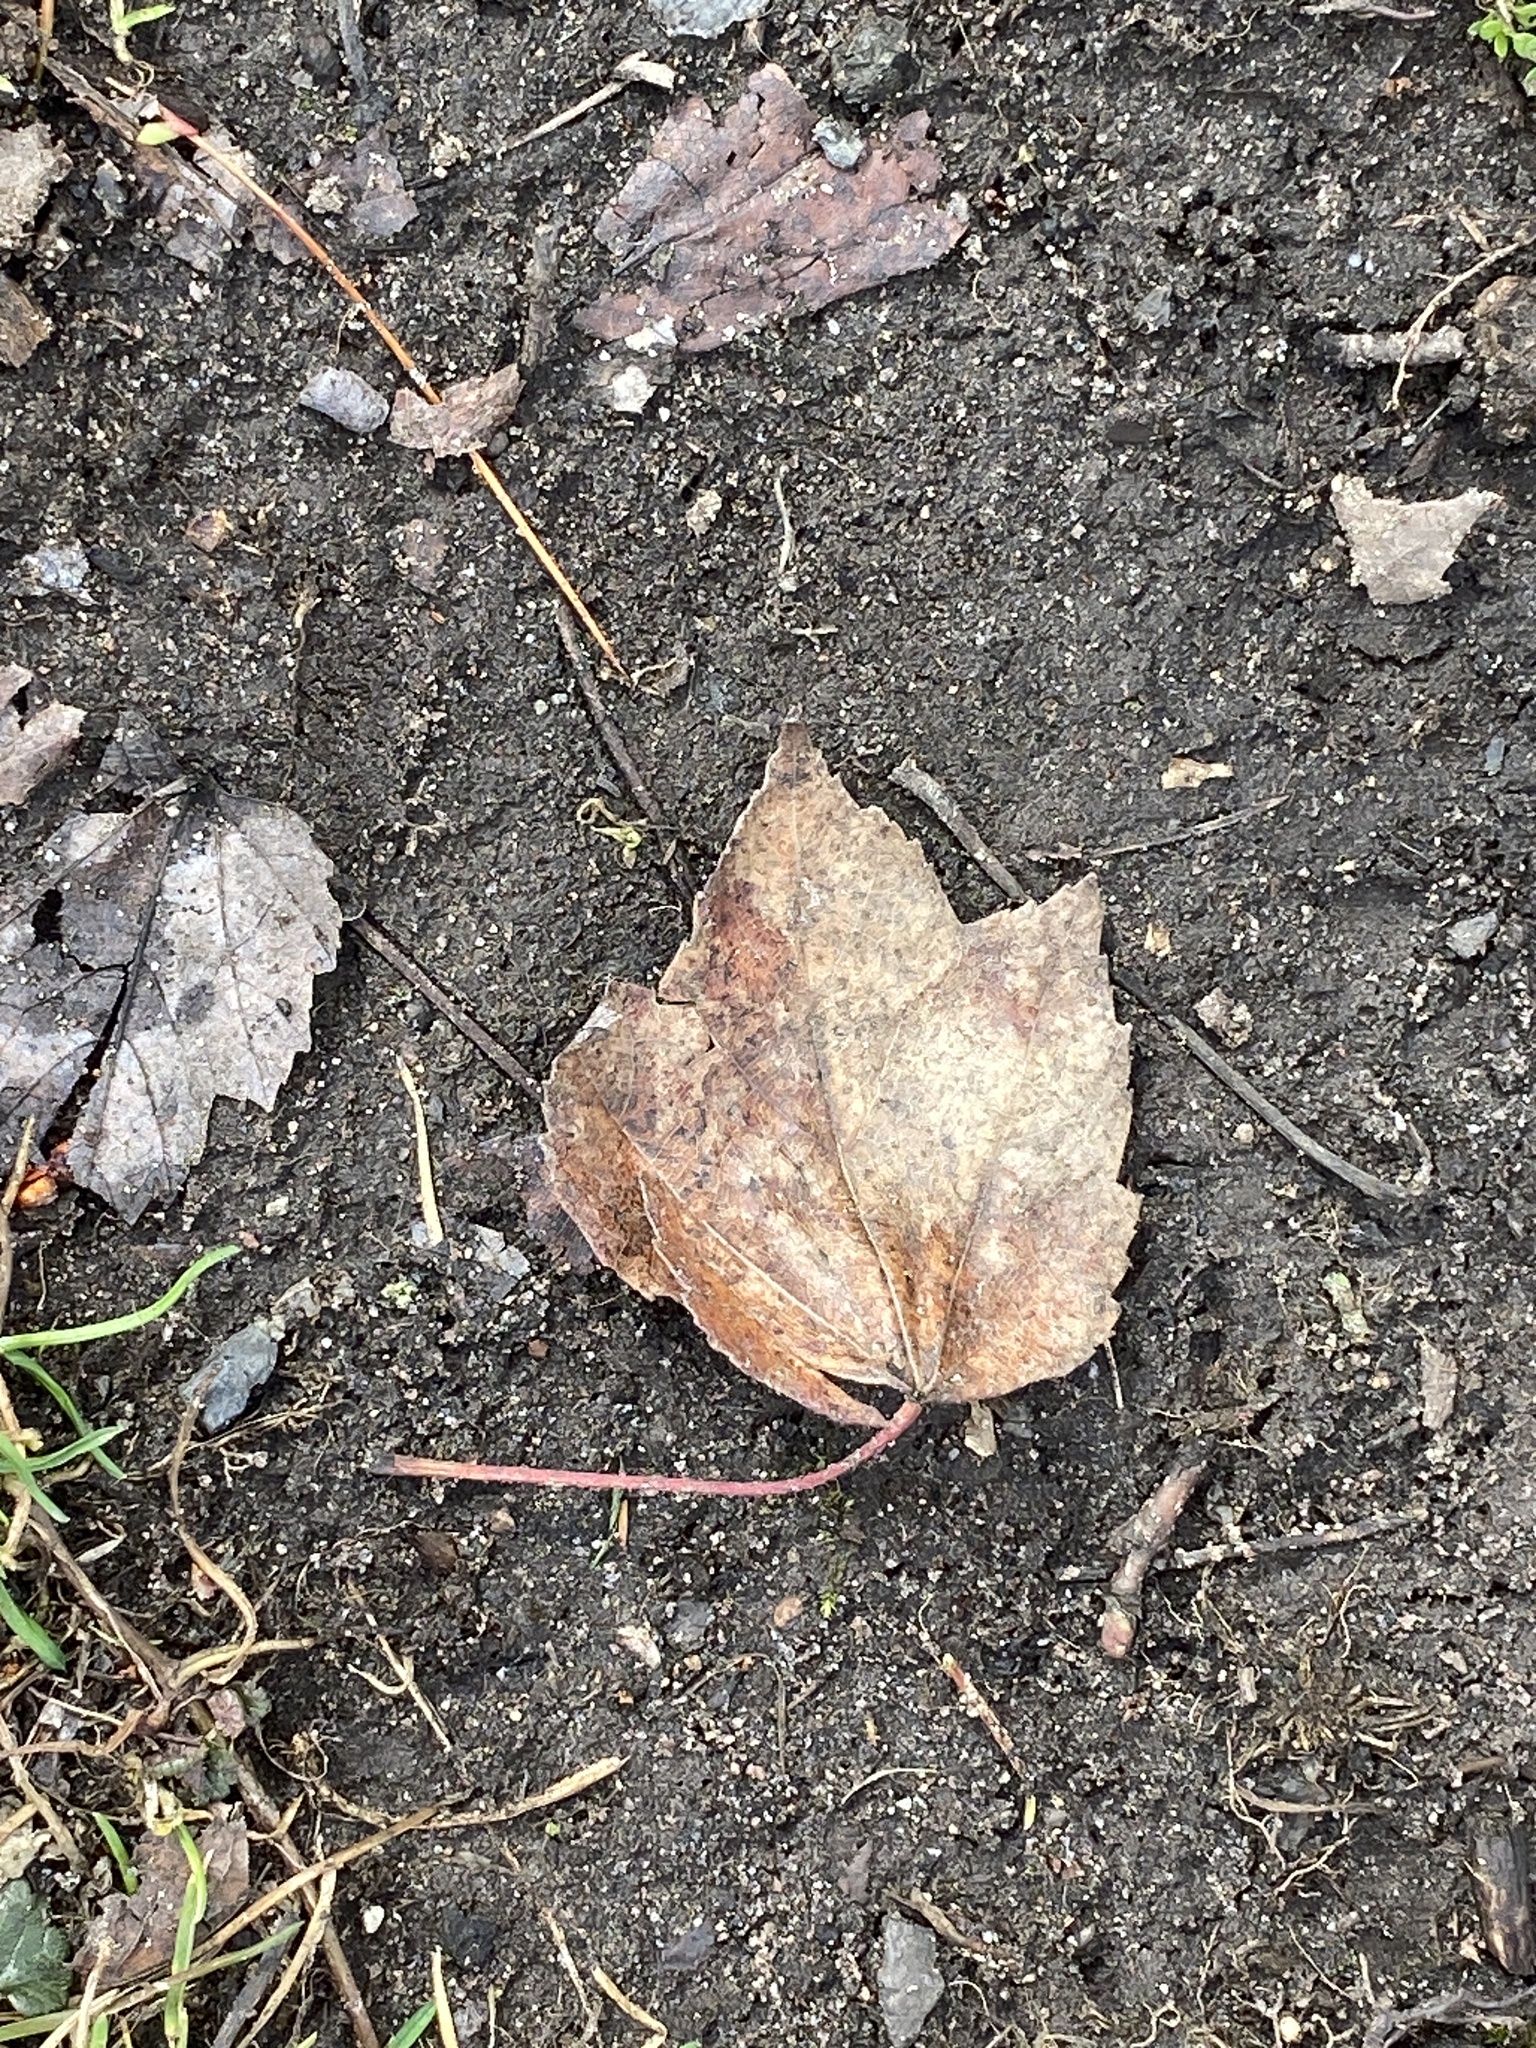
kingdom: Plantae
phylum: Tracheophyta
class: Magnoliopsida
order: Sapindales
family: Sapindaceae
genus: Acer
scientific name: Acer rubrum
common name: Red maple
